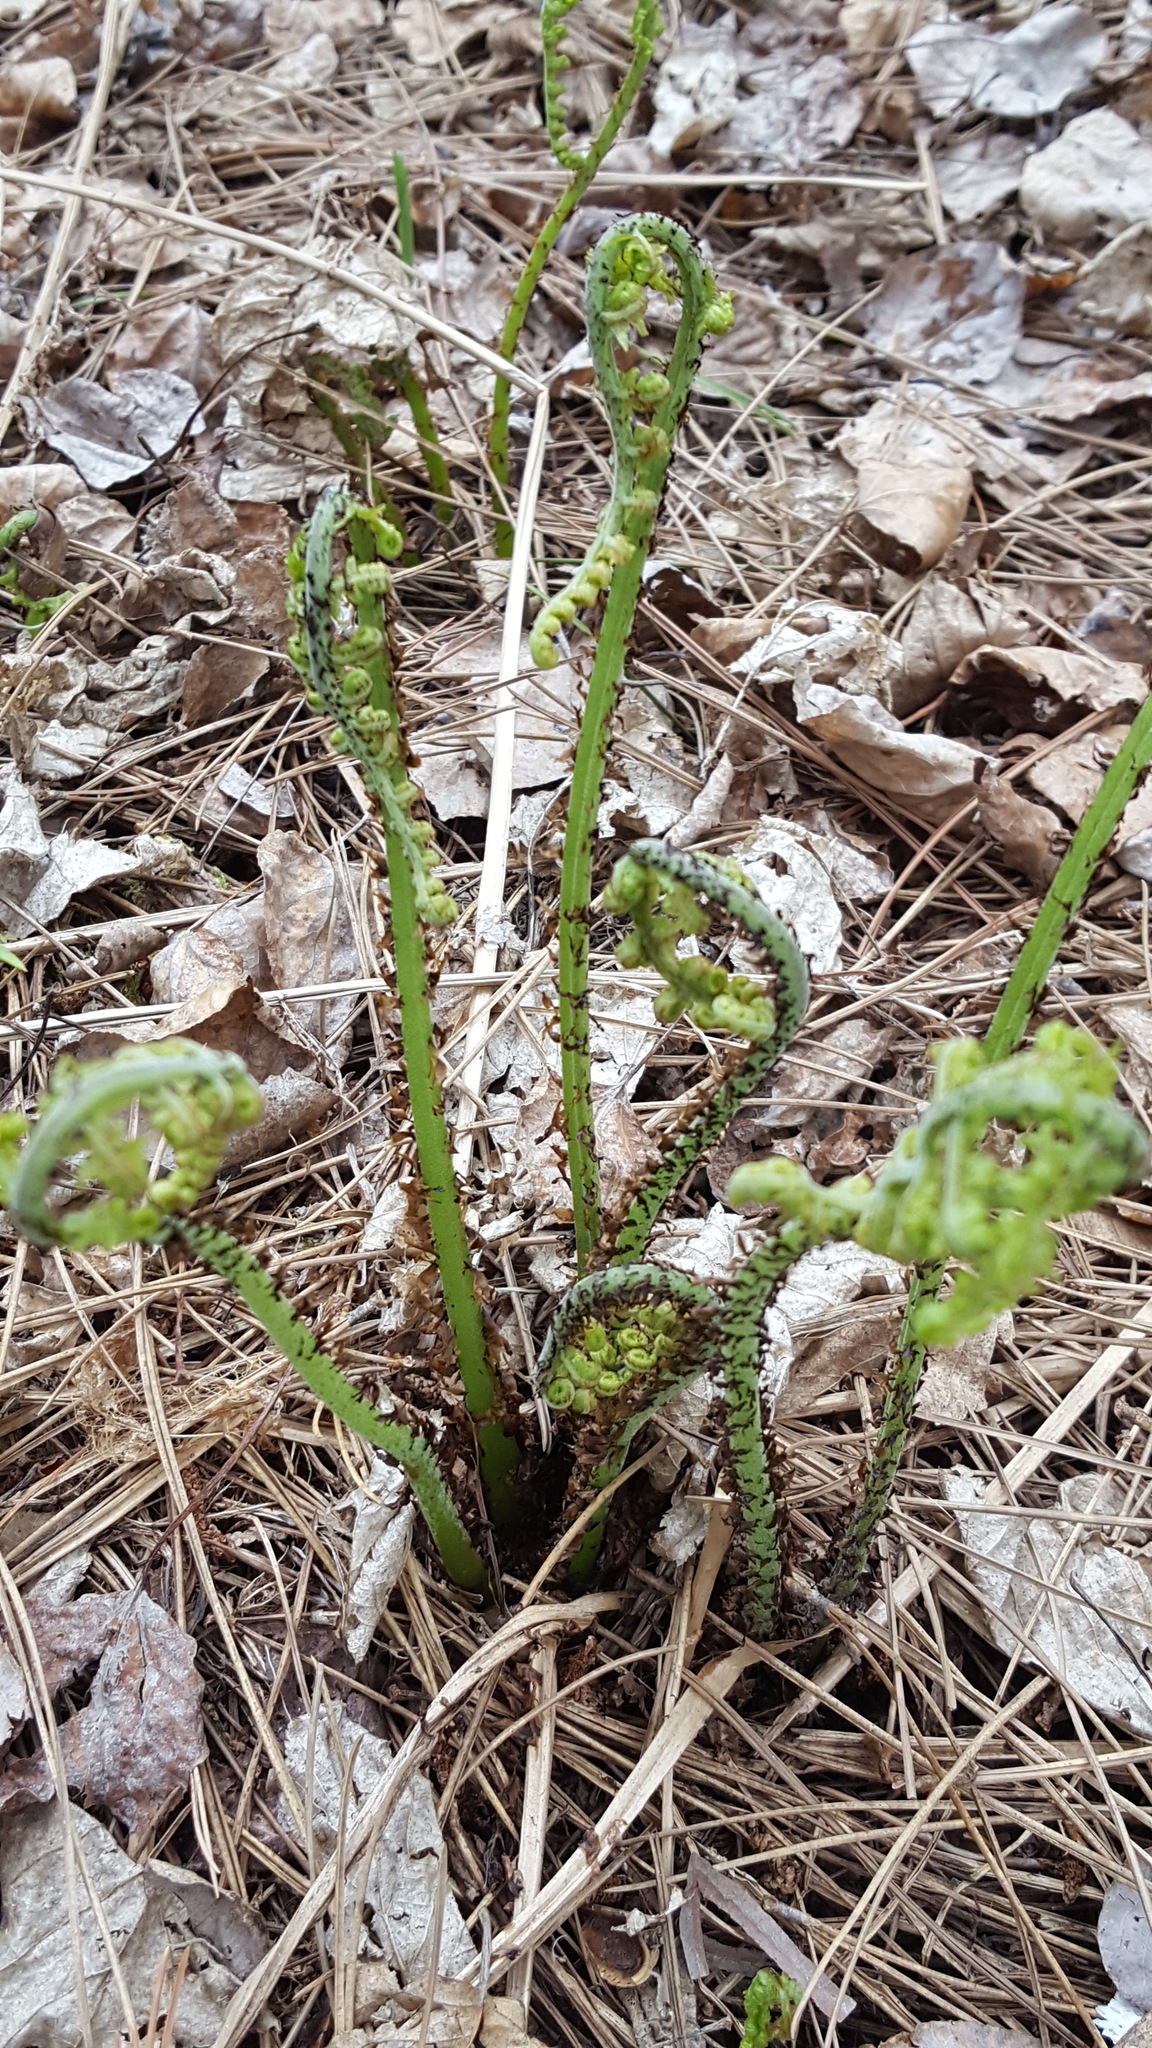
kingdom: Plantae
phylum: Tracheophyta
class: Polypodiopsida
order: Polypodiales
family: Athyriaceae
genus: Athyrium
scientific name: Athyrium angustum
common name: Northern lady fern
